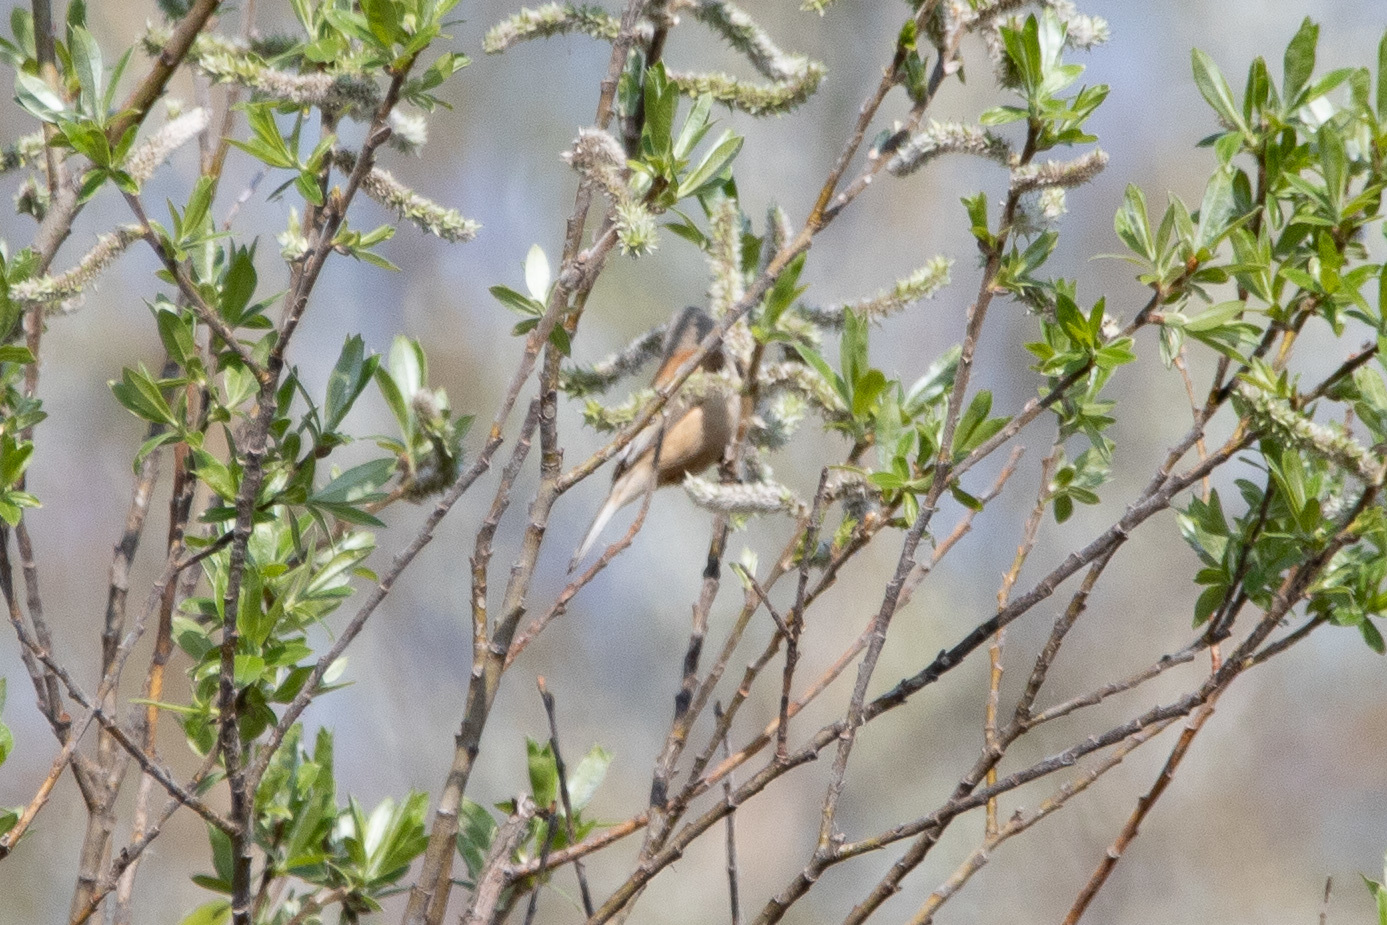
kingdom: Animalia
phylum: Chordata
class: Aves
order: Passeriformes
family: Remizidae
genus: Remiz
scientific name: Remiz pendulinus
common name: Eurasian penduline tit
